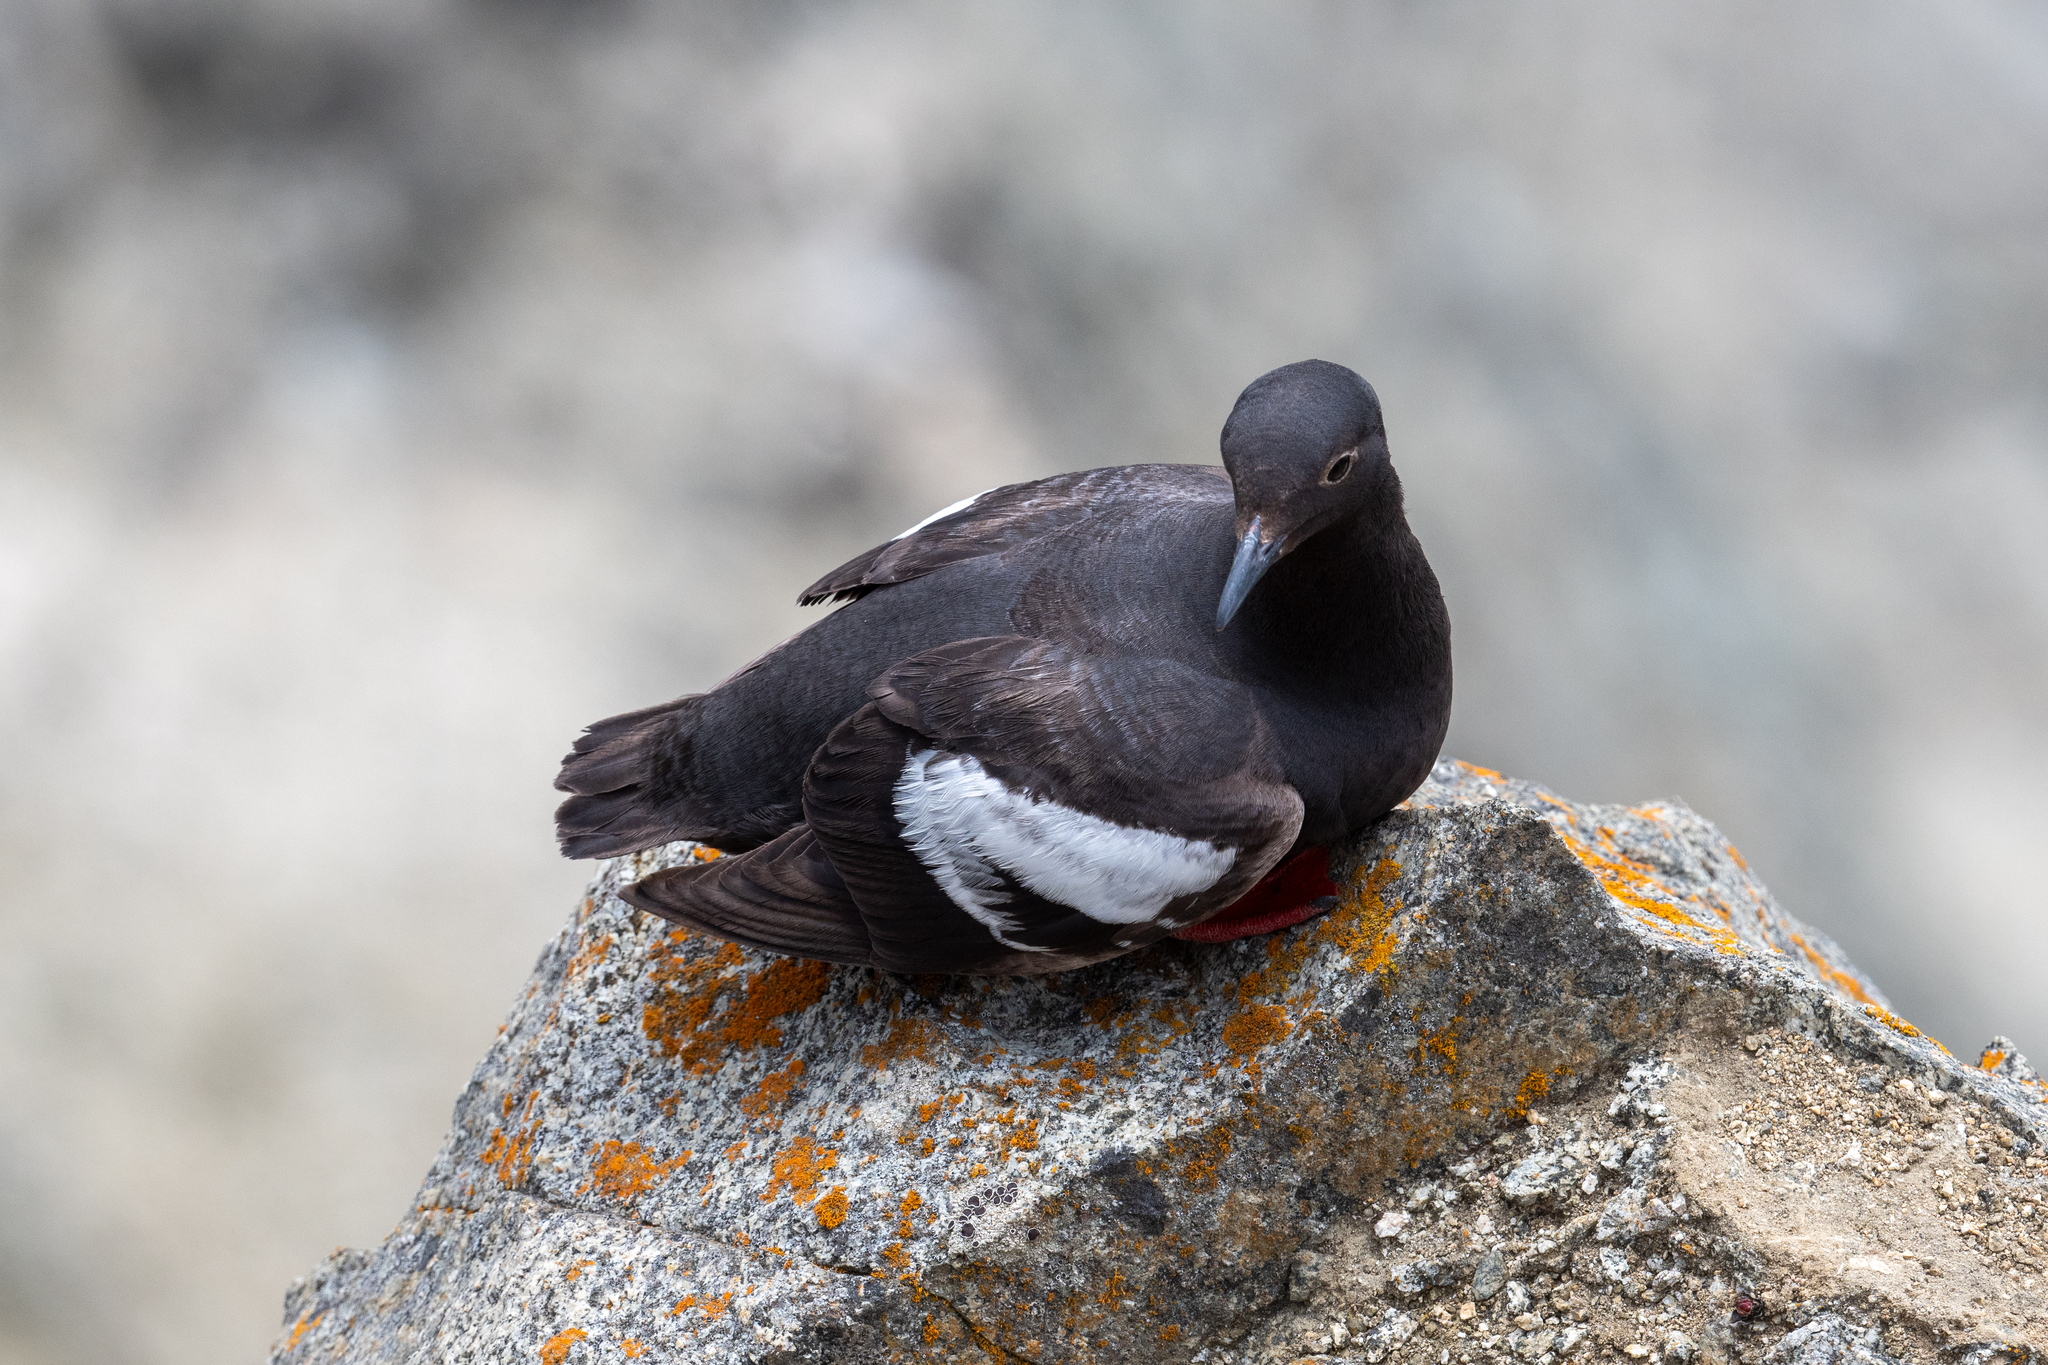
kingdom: Animalia
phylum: Chordata
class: Aves
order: Charadriiformes
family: Alcidae
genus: Cepphus
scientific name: Cepphus columba
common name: Pigeon guillemot
